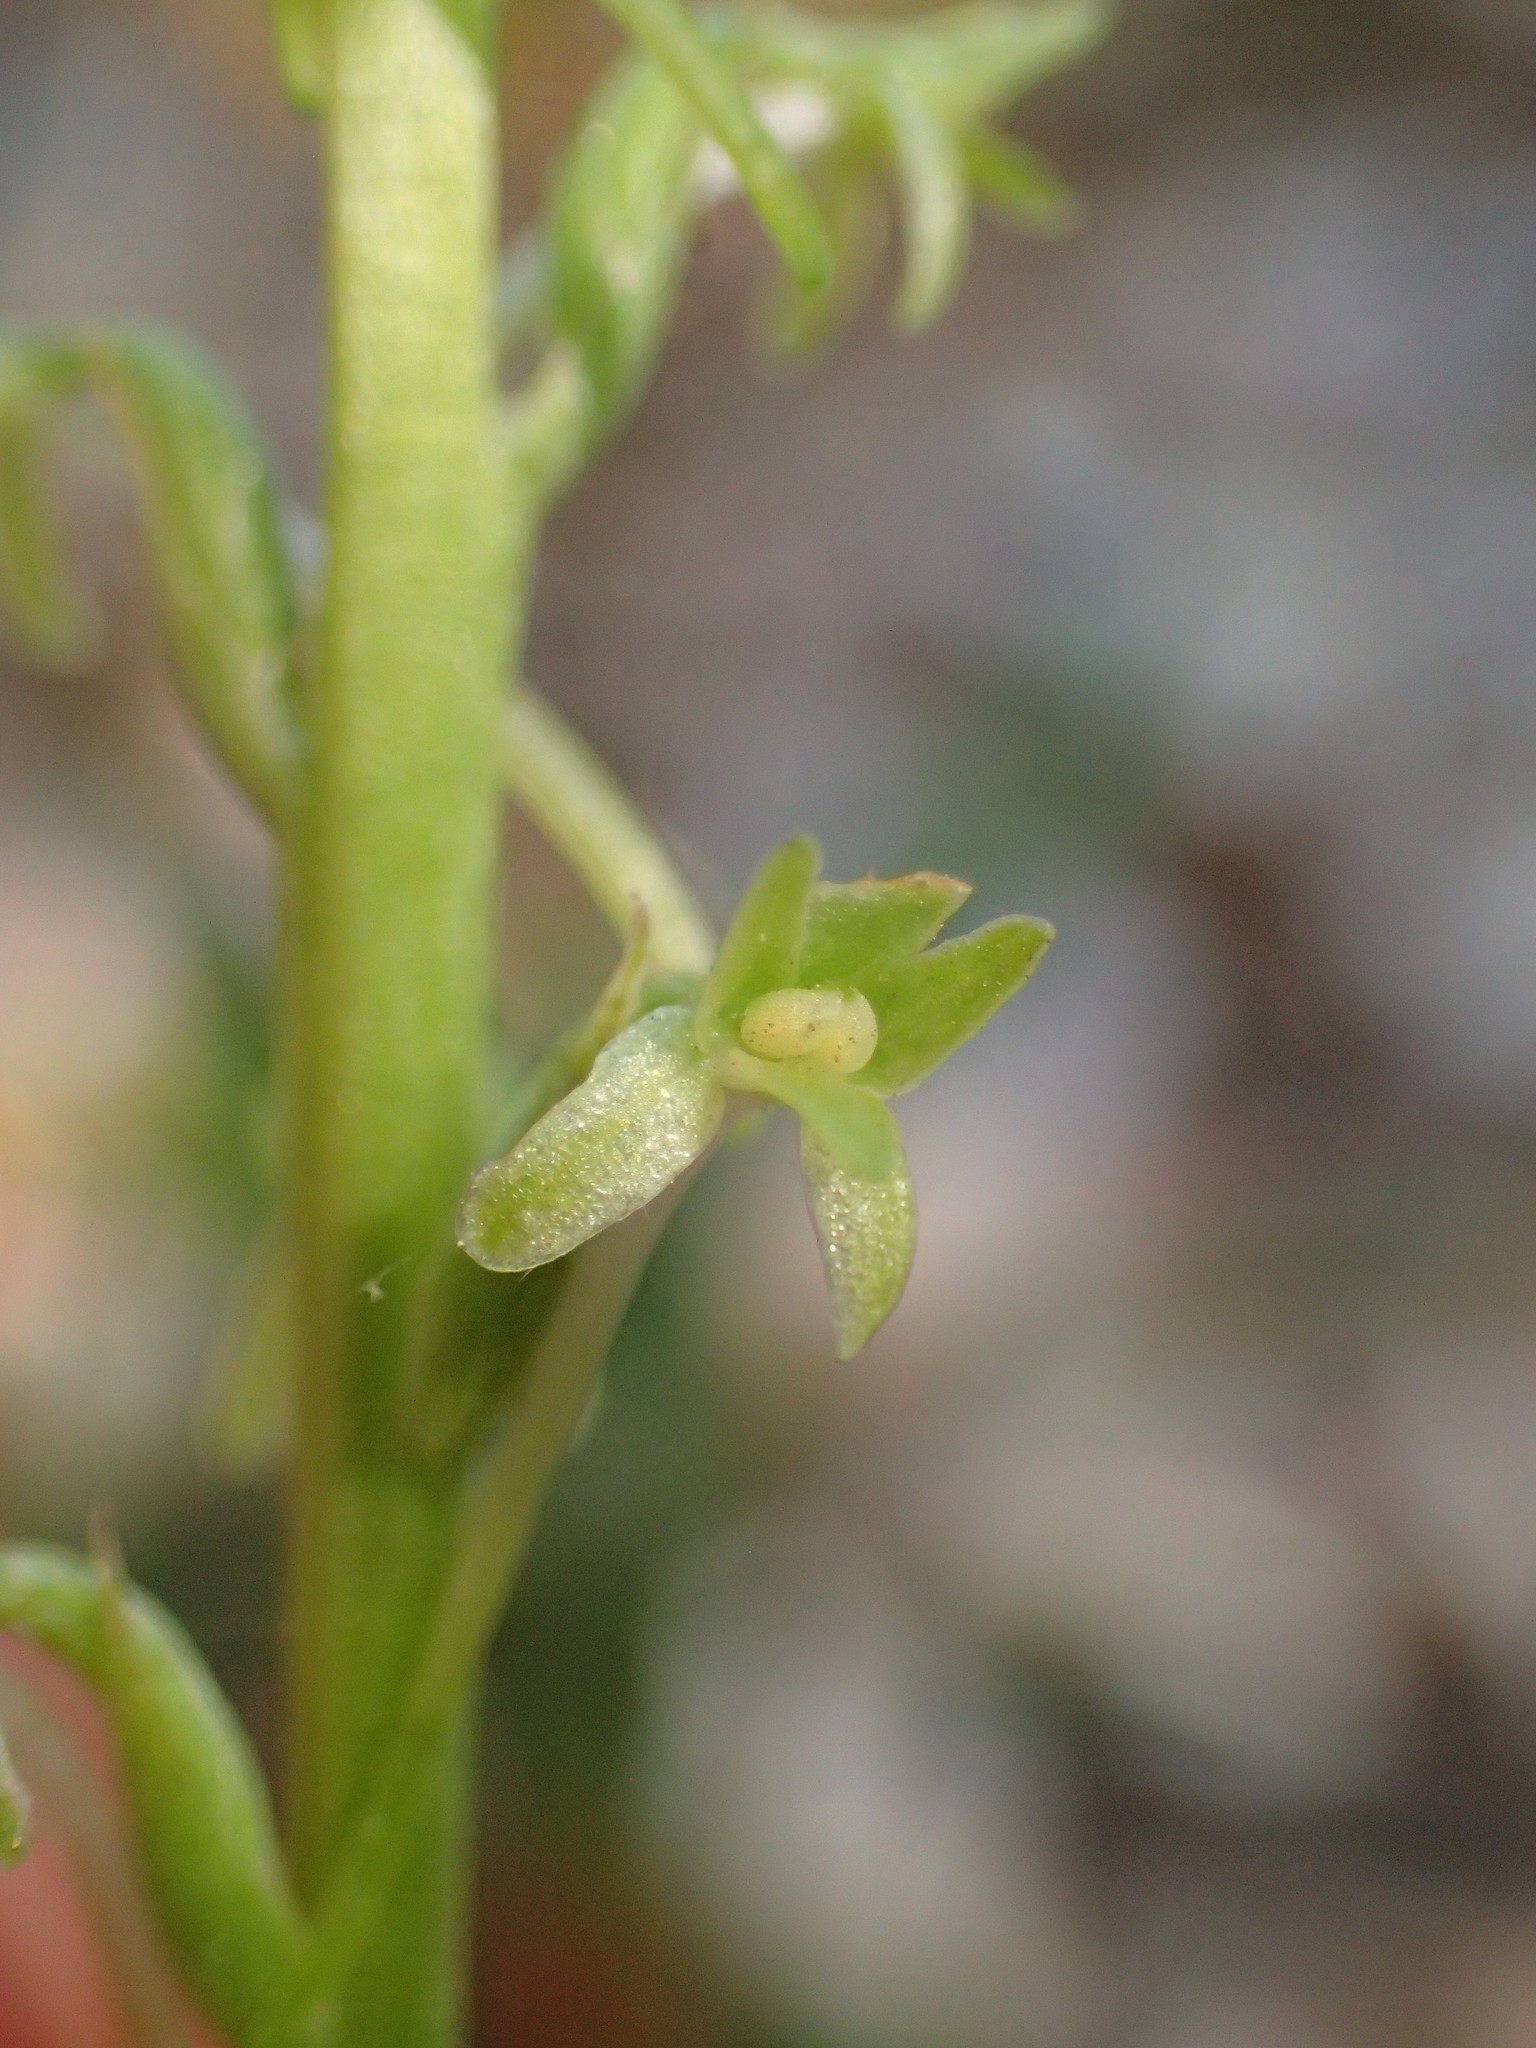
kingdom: Plantae
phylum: Tracheophyta
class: Liliopsida
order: Asparagales
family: Orchidaceae
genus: Platanthera
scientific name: Platanthera elongata
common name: Dense-flowered rein orchid
